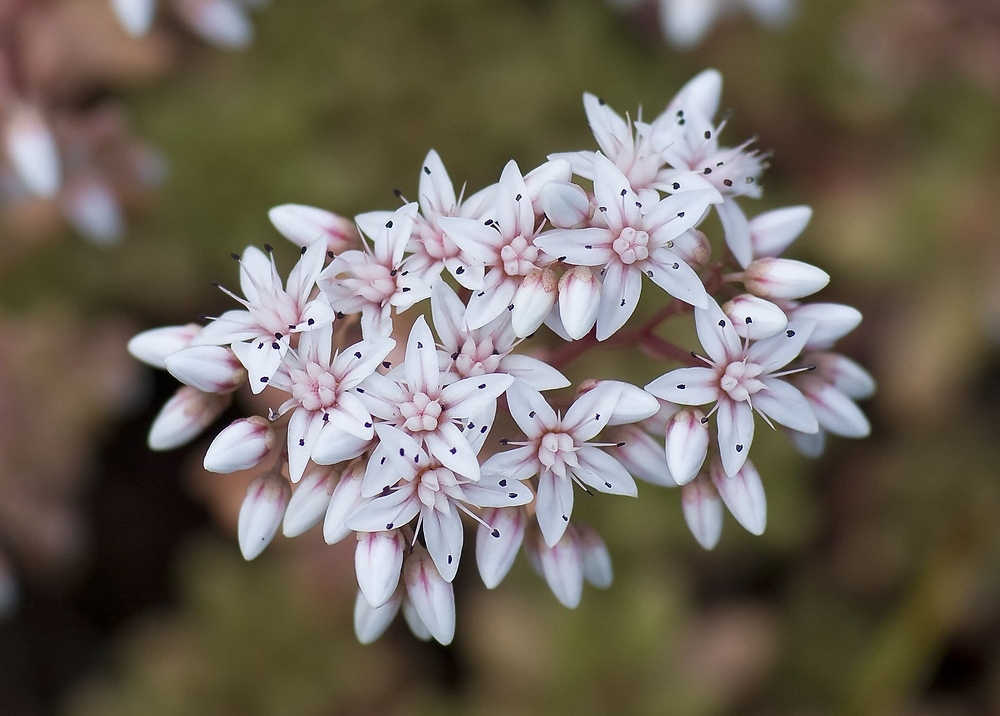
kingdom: Plantae
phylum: Tracheophyta
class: Magnoliopsida
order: Saxifragales
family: Crassulaceae
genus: Sedum
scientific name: Sedum album
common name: White stonecrop
